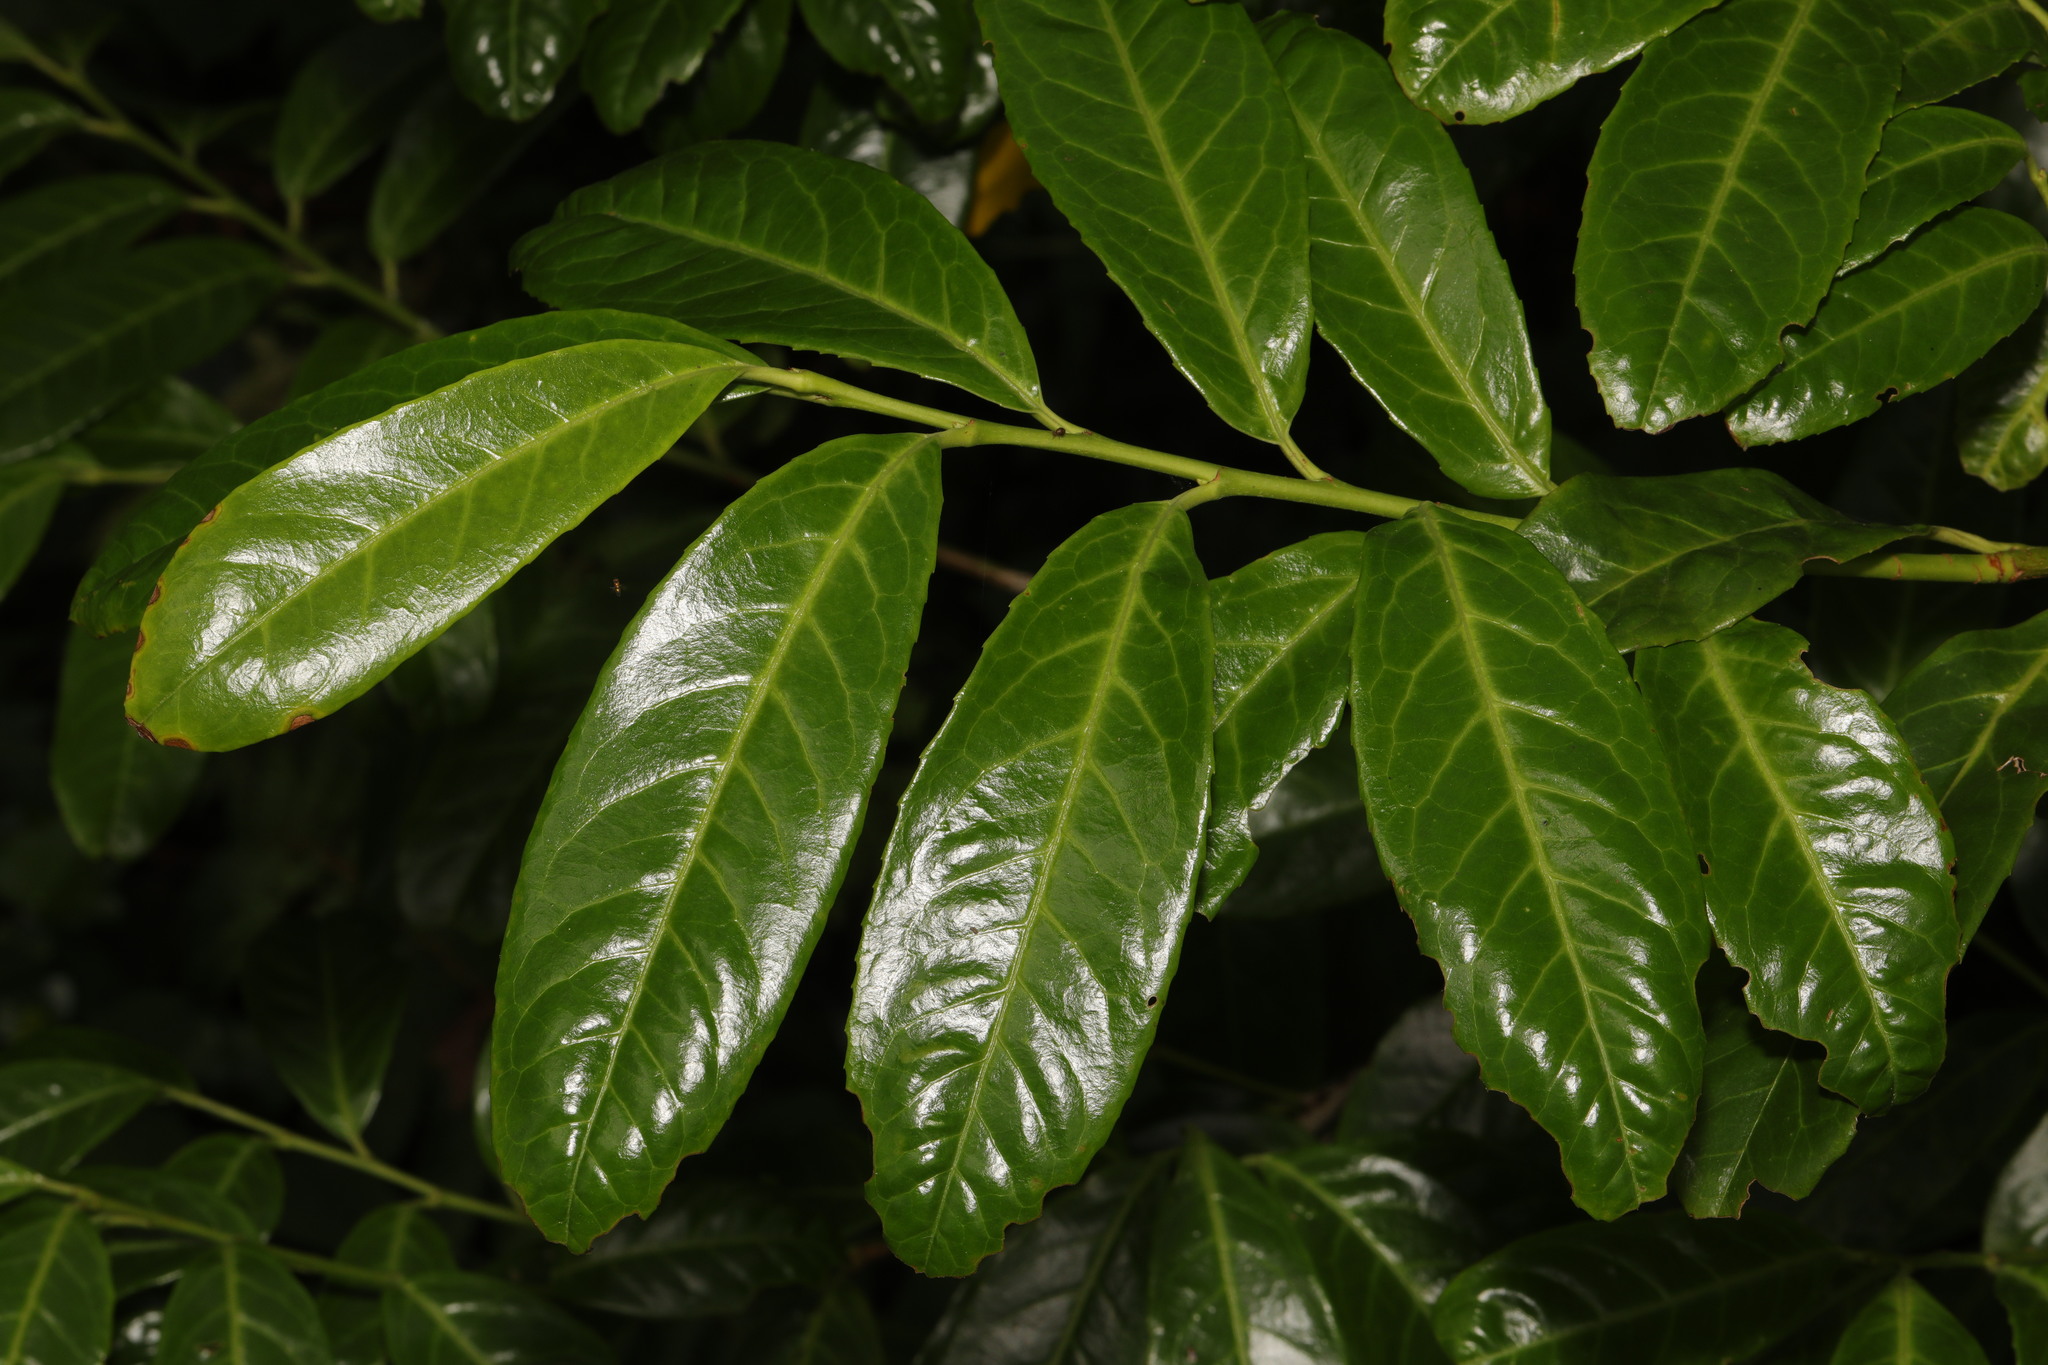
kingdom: Plantae
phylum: Tracheophyta
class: Magnoliopsida
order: Rosales
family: Rosaceae
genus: Prunus
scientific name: Prunus laurocerasus
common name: Cherry laurel
